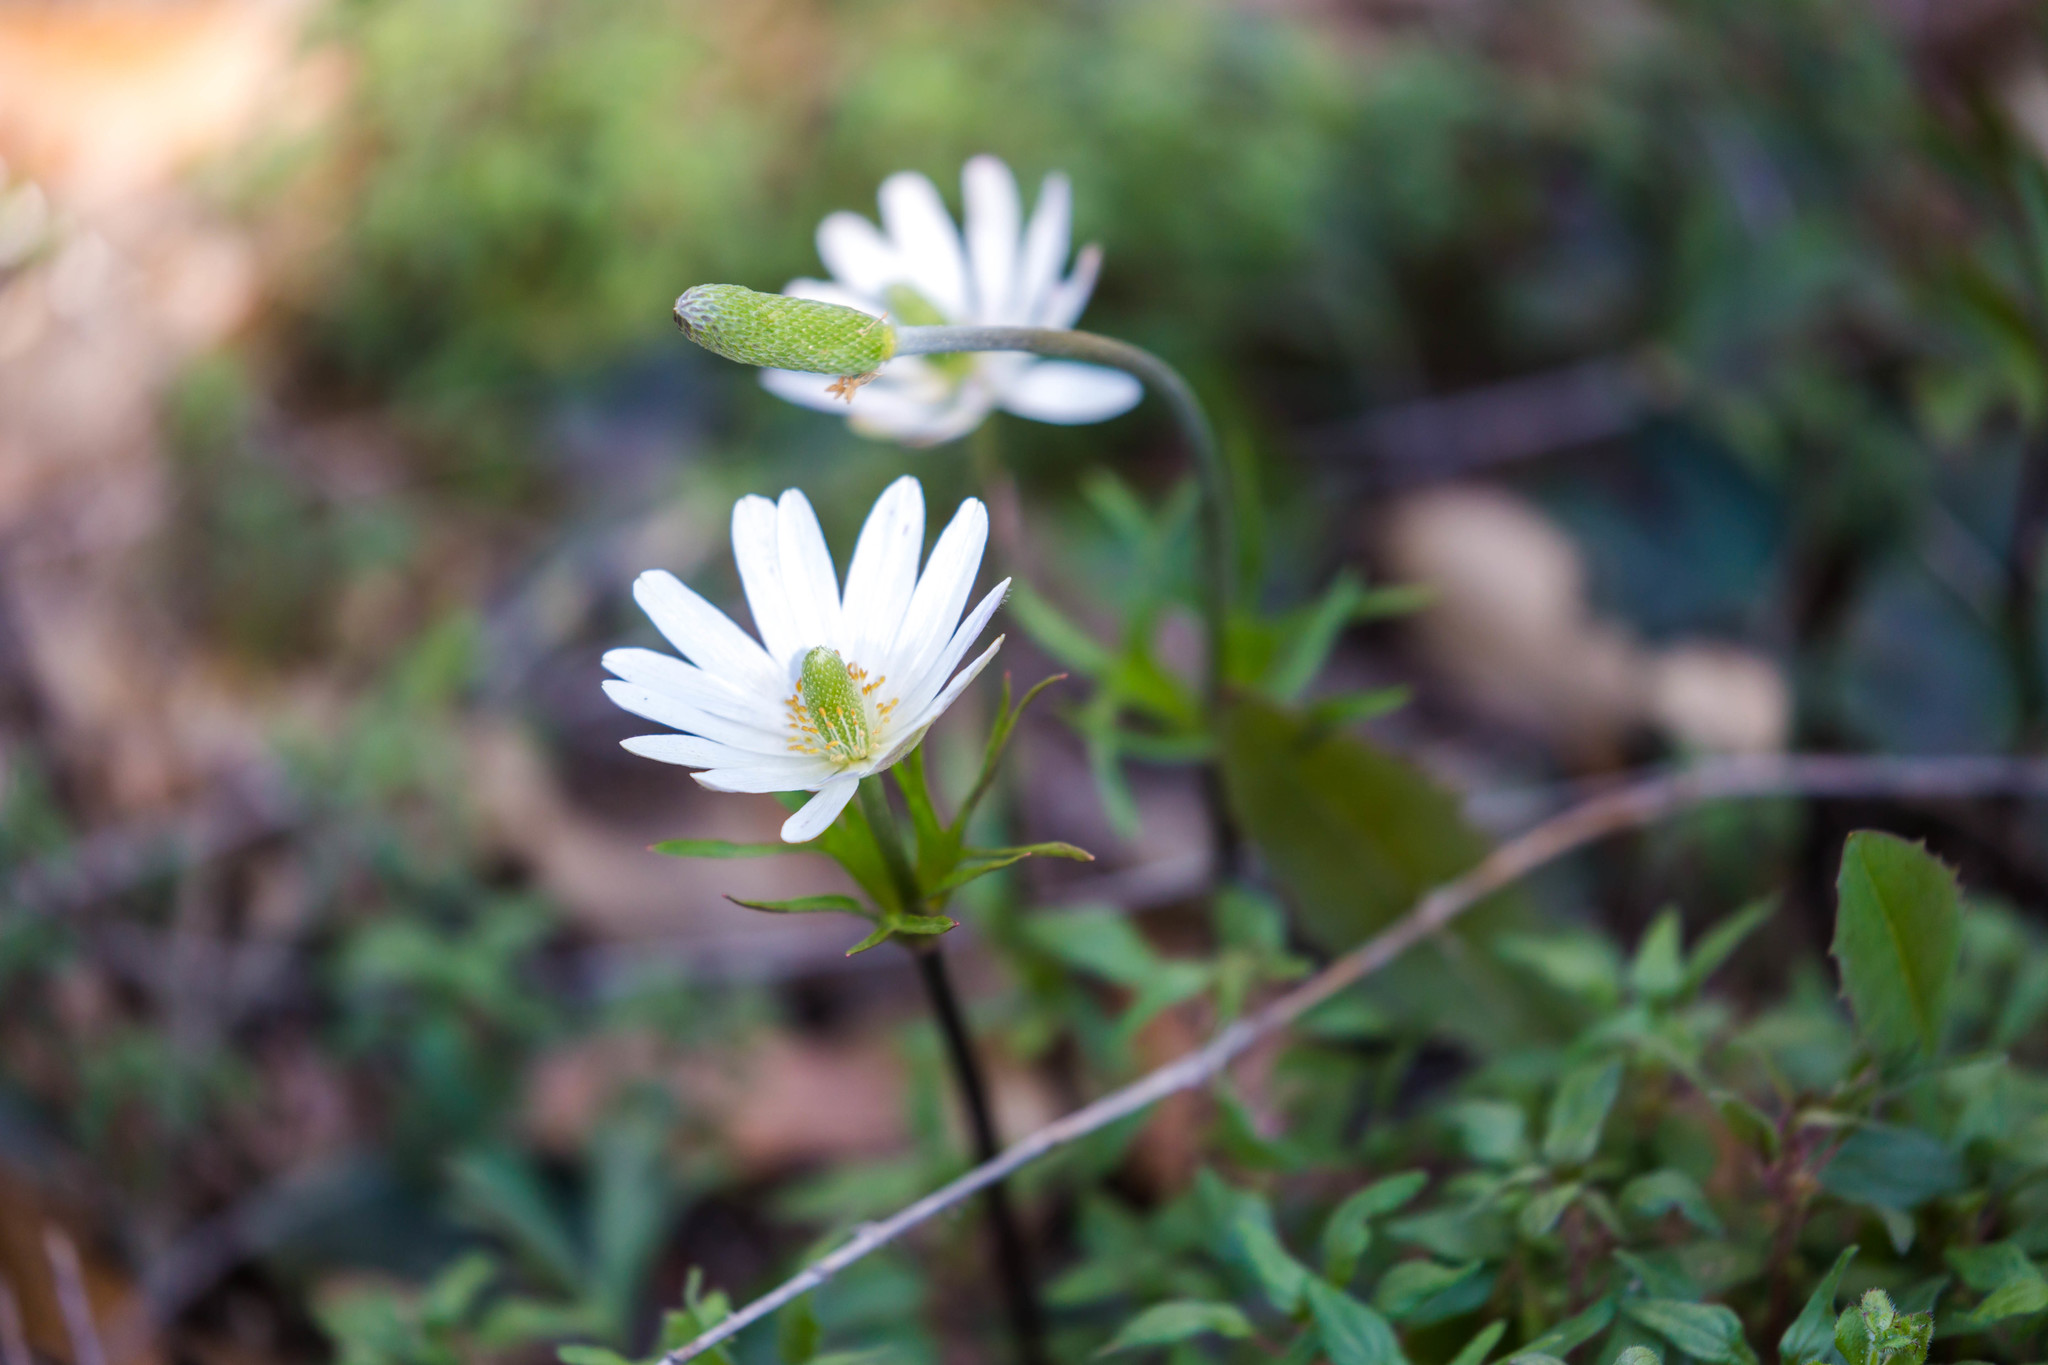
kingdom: Plantae
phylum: Tracheophyta
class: Magnoliopsida
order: Ranunculales
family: Ranunculaceae
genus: Anemone
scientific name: Anemone berlandieri
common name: Ten-petal anemone
